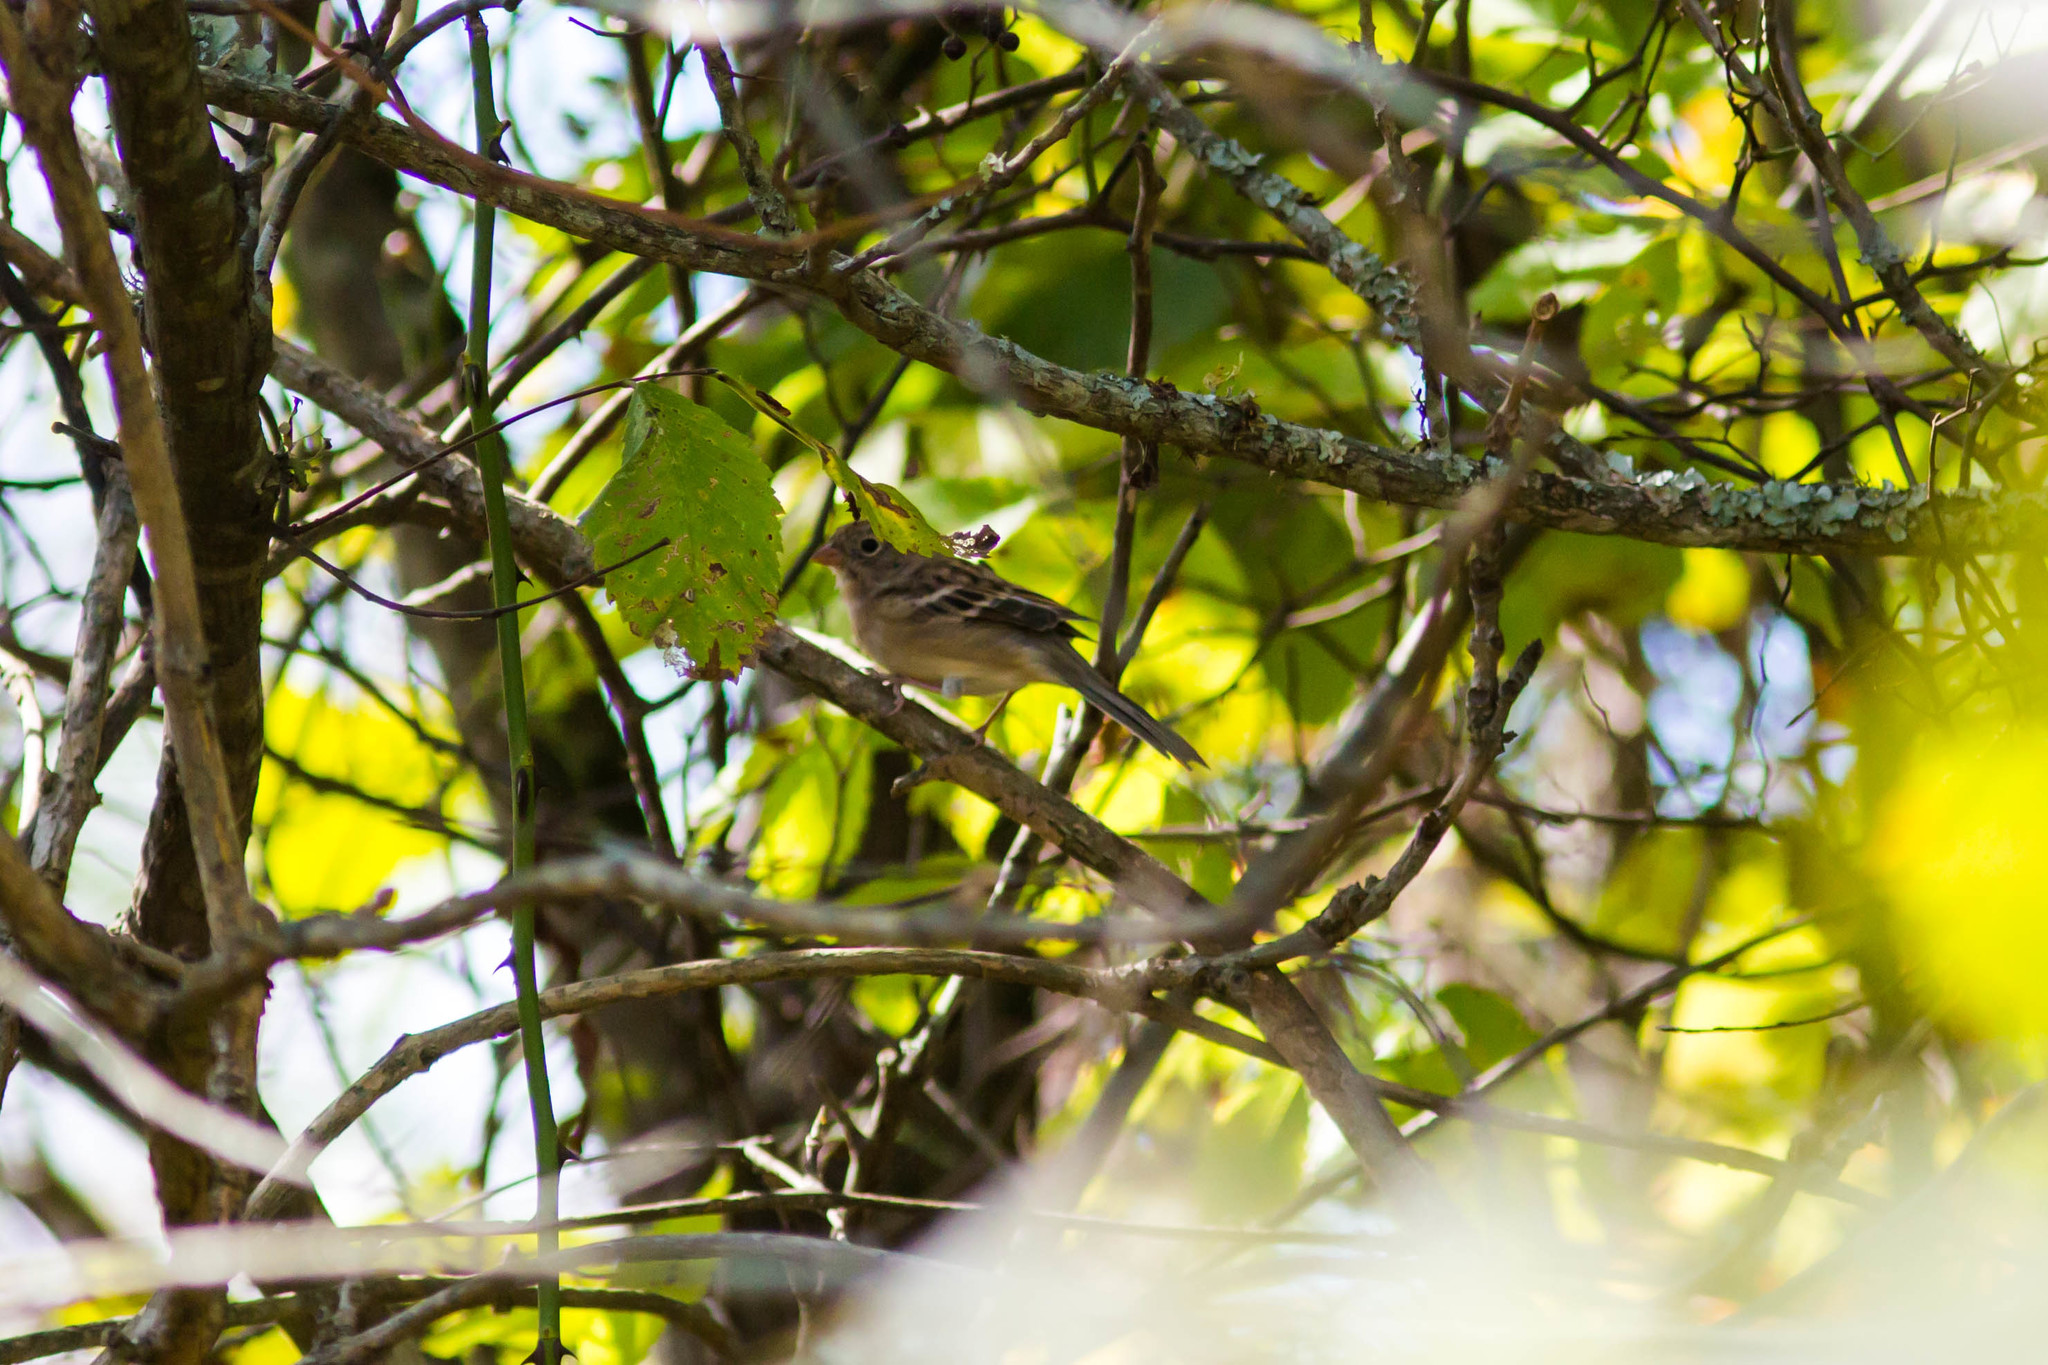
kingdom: Animalia
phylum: Chordata
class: Aves
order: Passeriformes
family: Passerellidae
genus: Spizella
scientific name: Spizella pusilla
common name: Field sparrow
